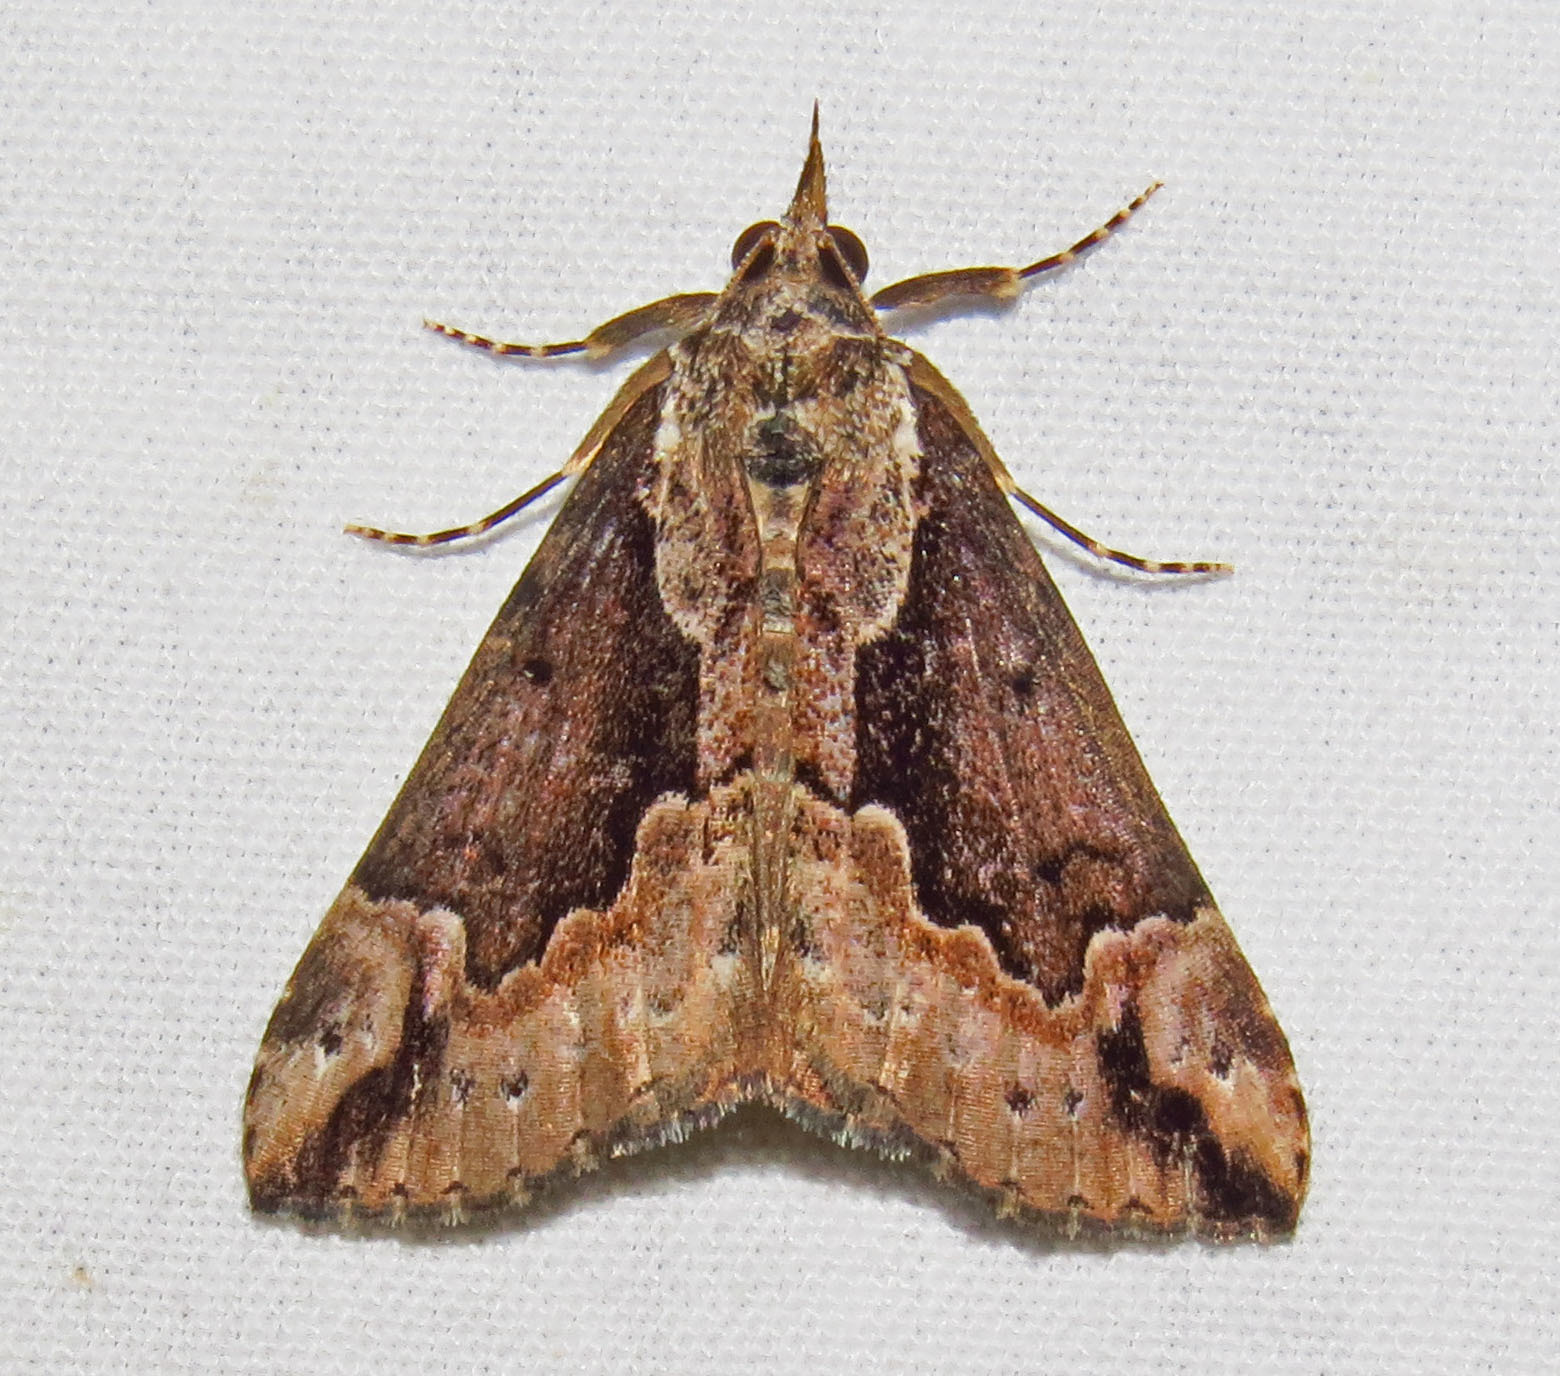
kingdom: Animalia
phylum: Arthropoda
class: Insecta
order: Lepidoptera
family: Erebidae
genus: Hypena
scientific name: Hypena baltimoralis
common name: Baltimore snout
